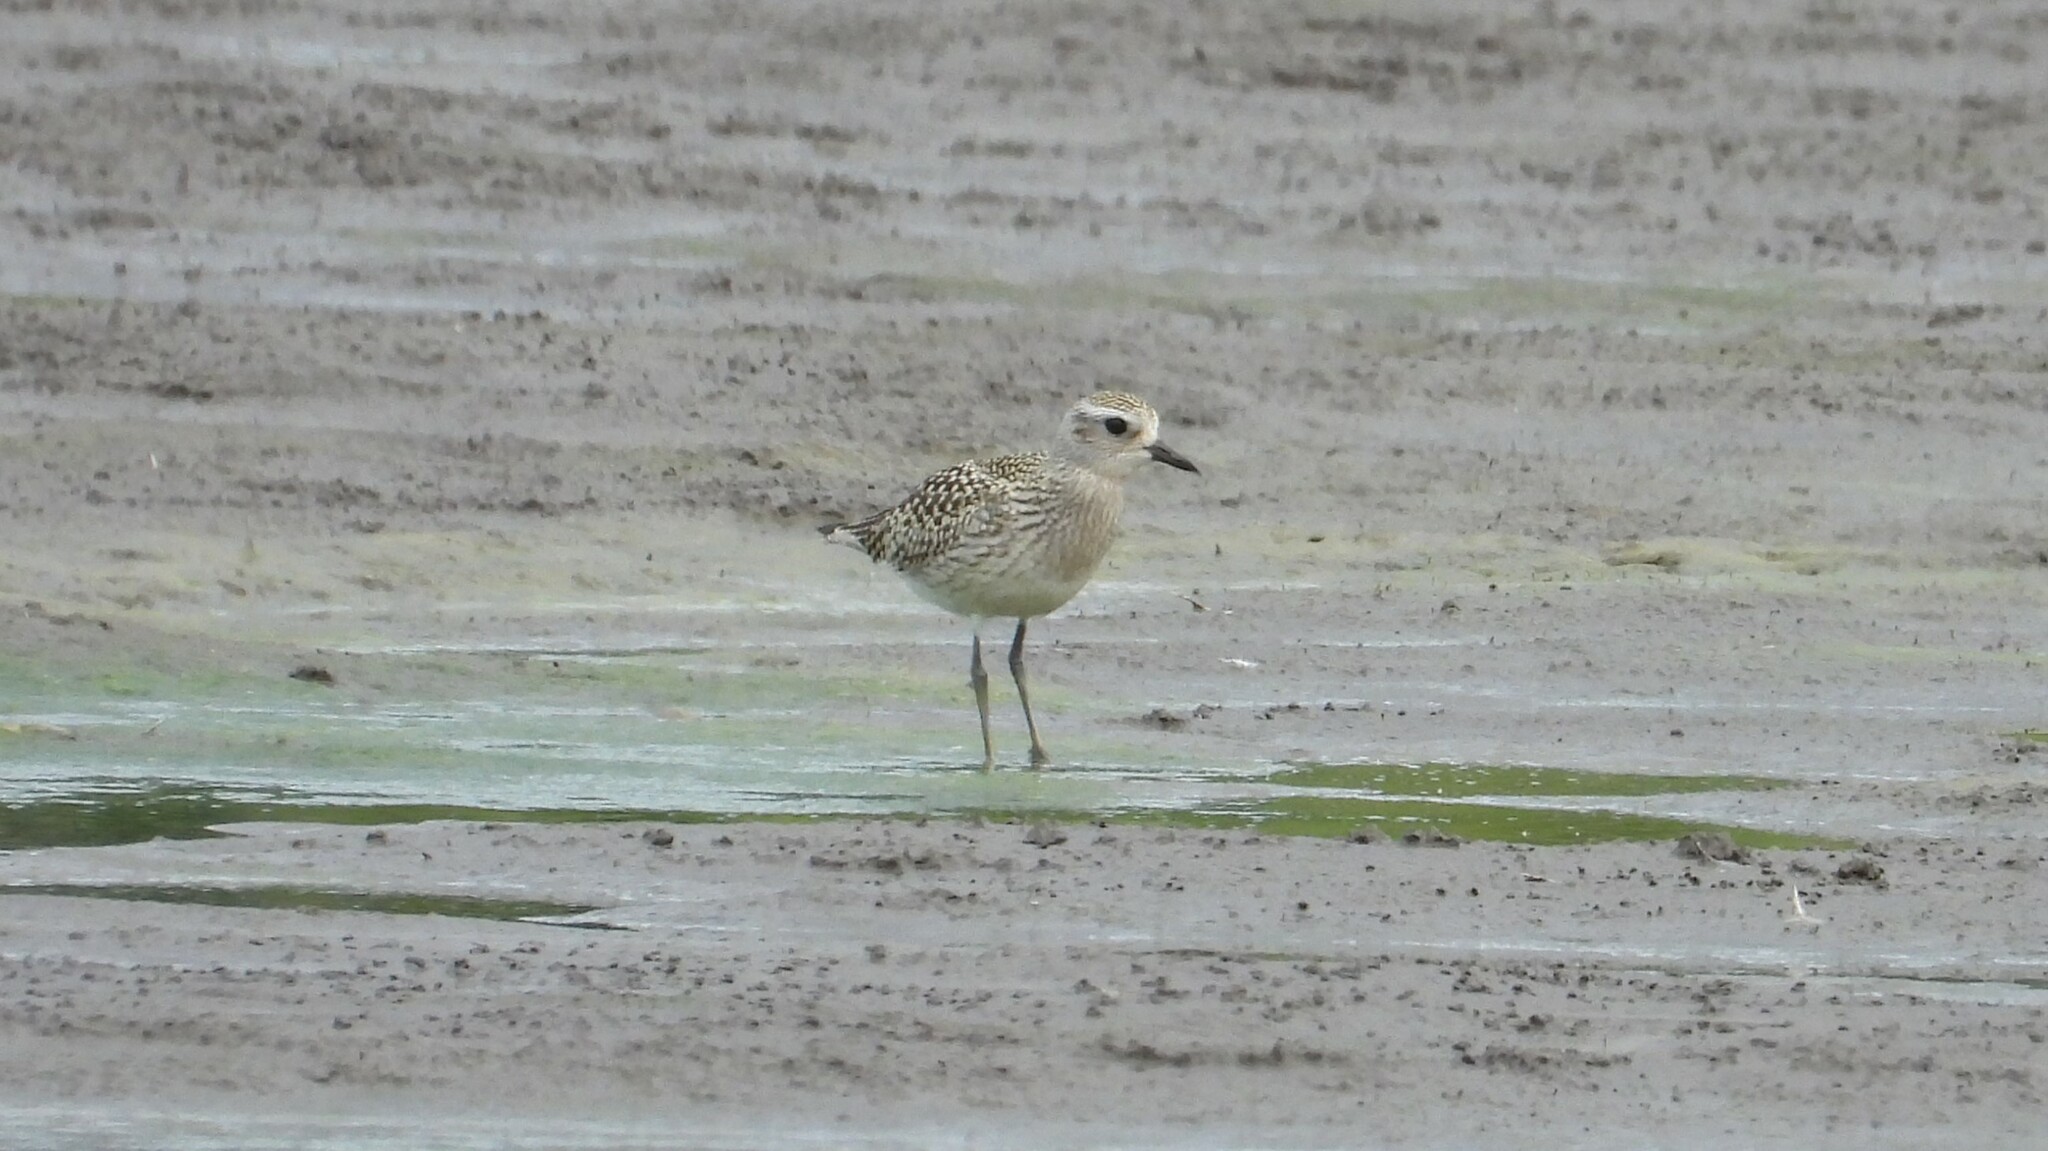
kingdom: Animalia
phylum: Chordata
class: Aves
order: Charadriiformes
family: Charadriidae
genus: Pluvialis
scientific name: Pluvialis squatarola
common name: Grey plover
